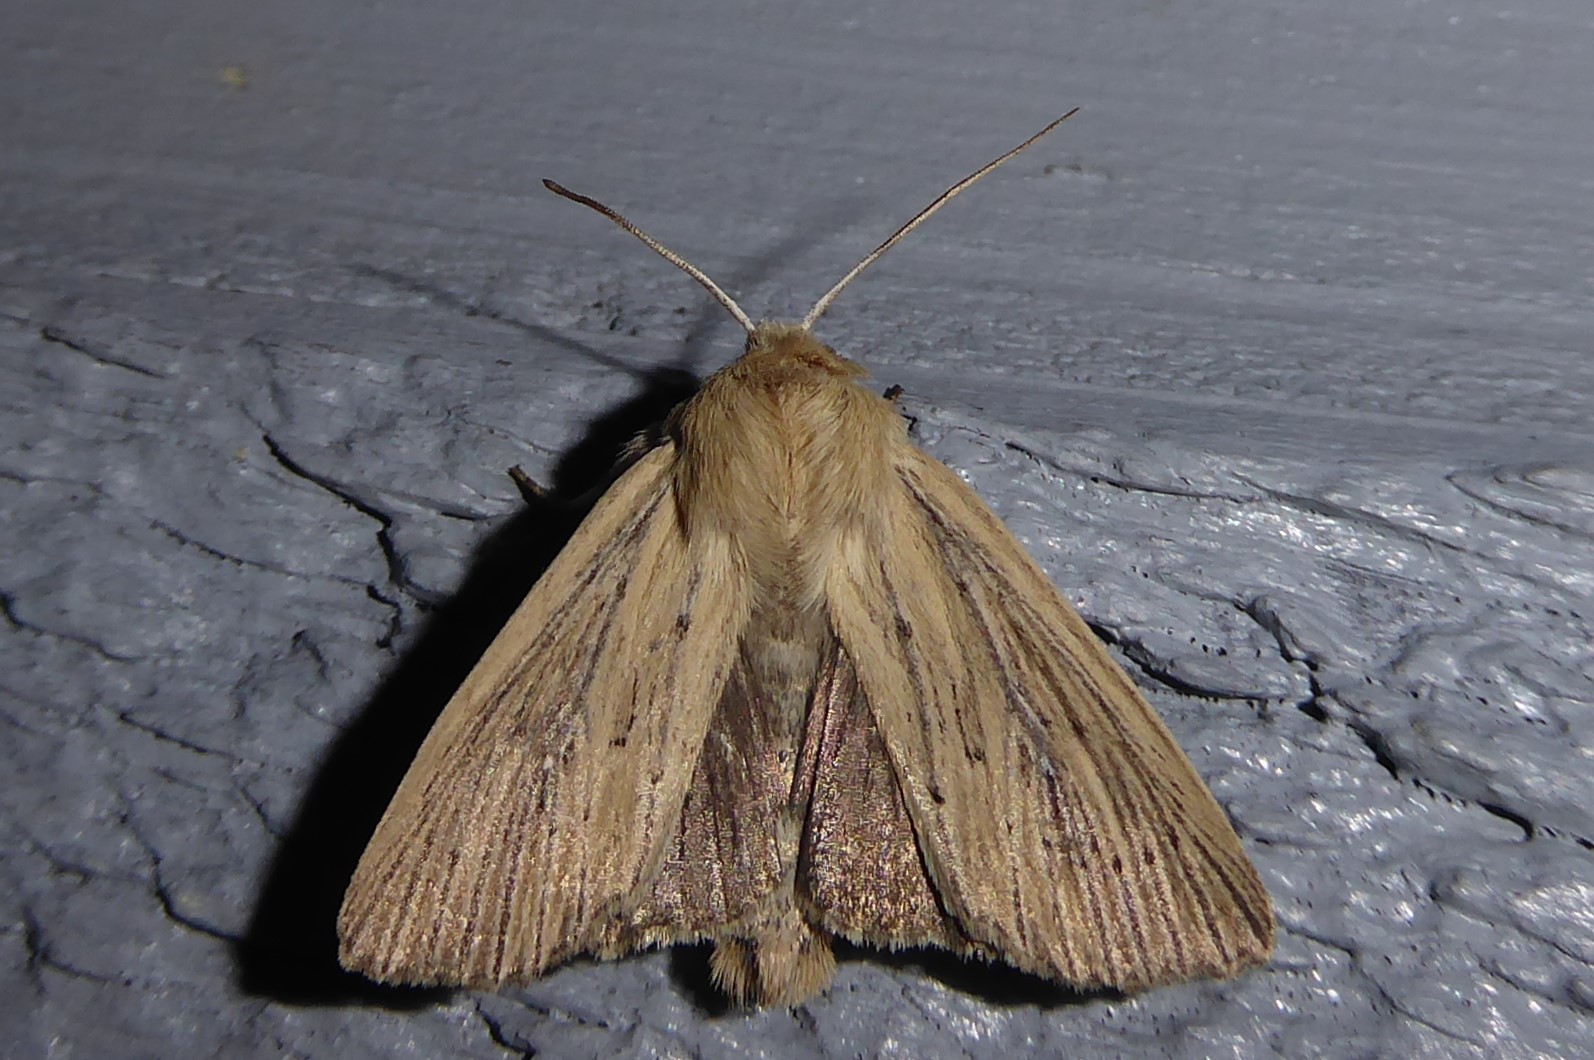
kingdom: Animalia
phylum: Arthropoda
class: Insecta
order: Lepidoptera
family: Noctuidae
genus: Ichneutica
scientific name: Ichneutica arotis
